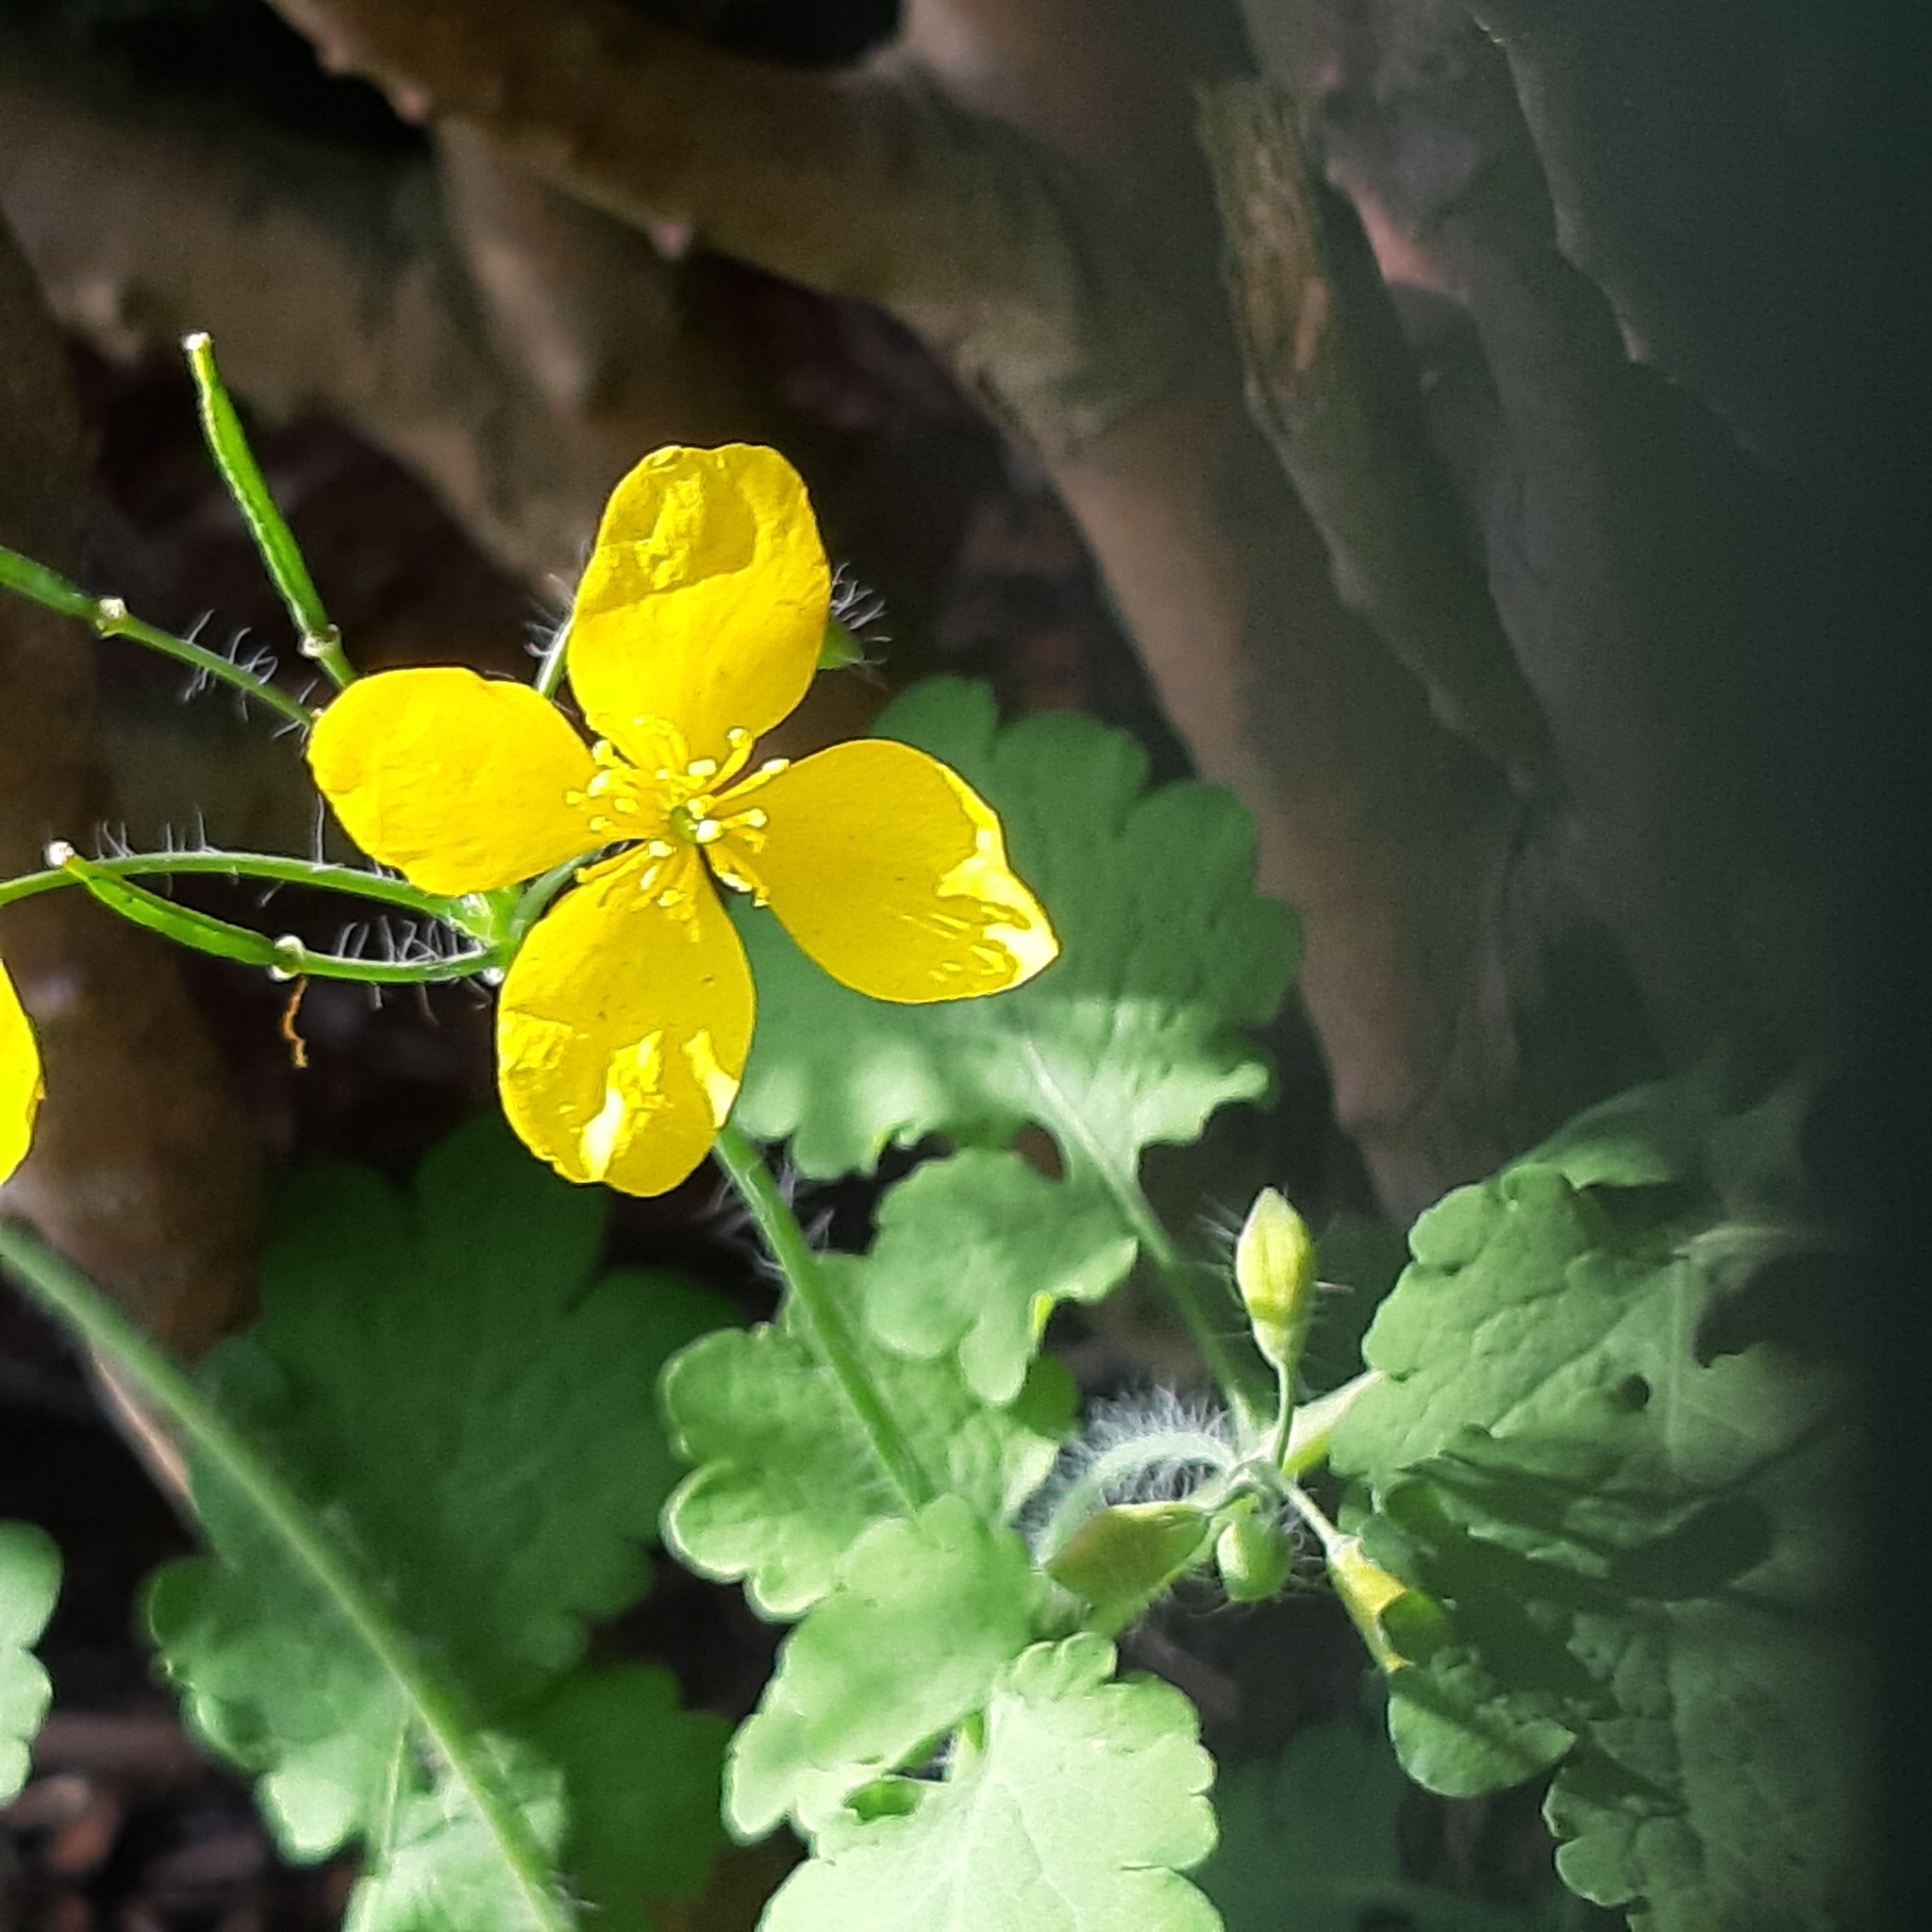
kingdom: Plantae
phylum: Tracheophyta
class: Magnoliopsida
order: Ranunculales
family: Papaveraceae
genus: Chelidonium
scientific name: Chelidonium majus
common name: Greater celandine
